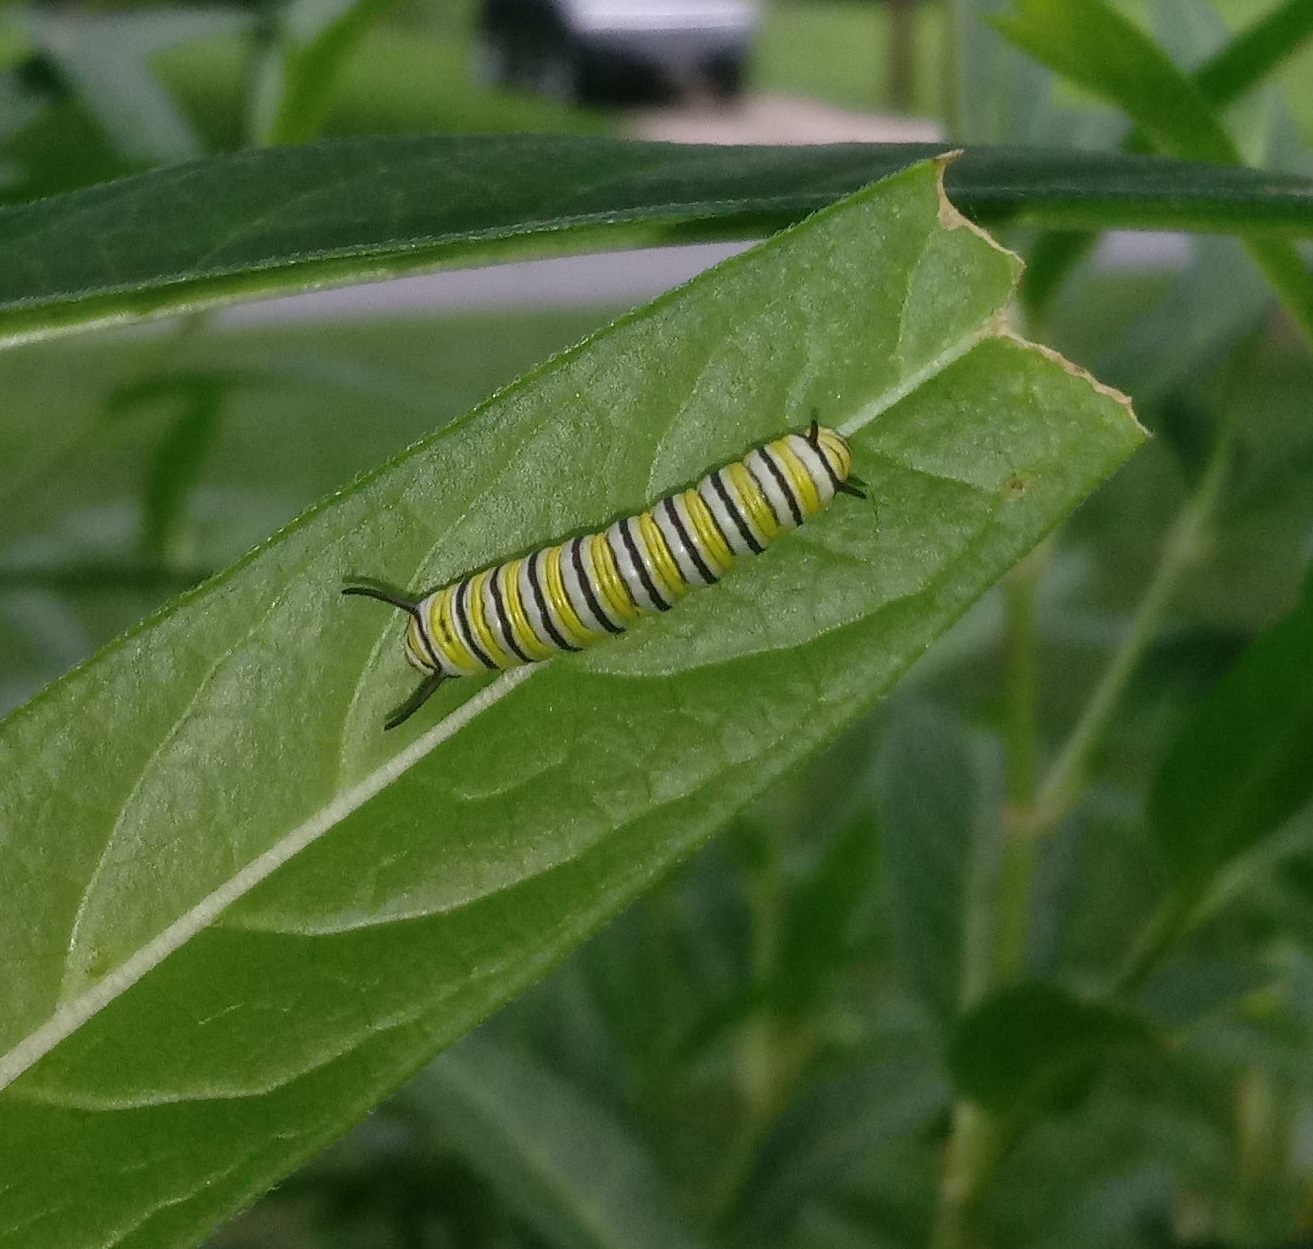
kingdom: Animalia
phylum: Arthropoda
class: Insecta
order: Lepidoptera
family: Nymphalidae
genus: Danaus
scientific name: Danaus plexippus
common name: Monarch
